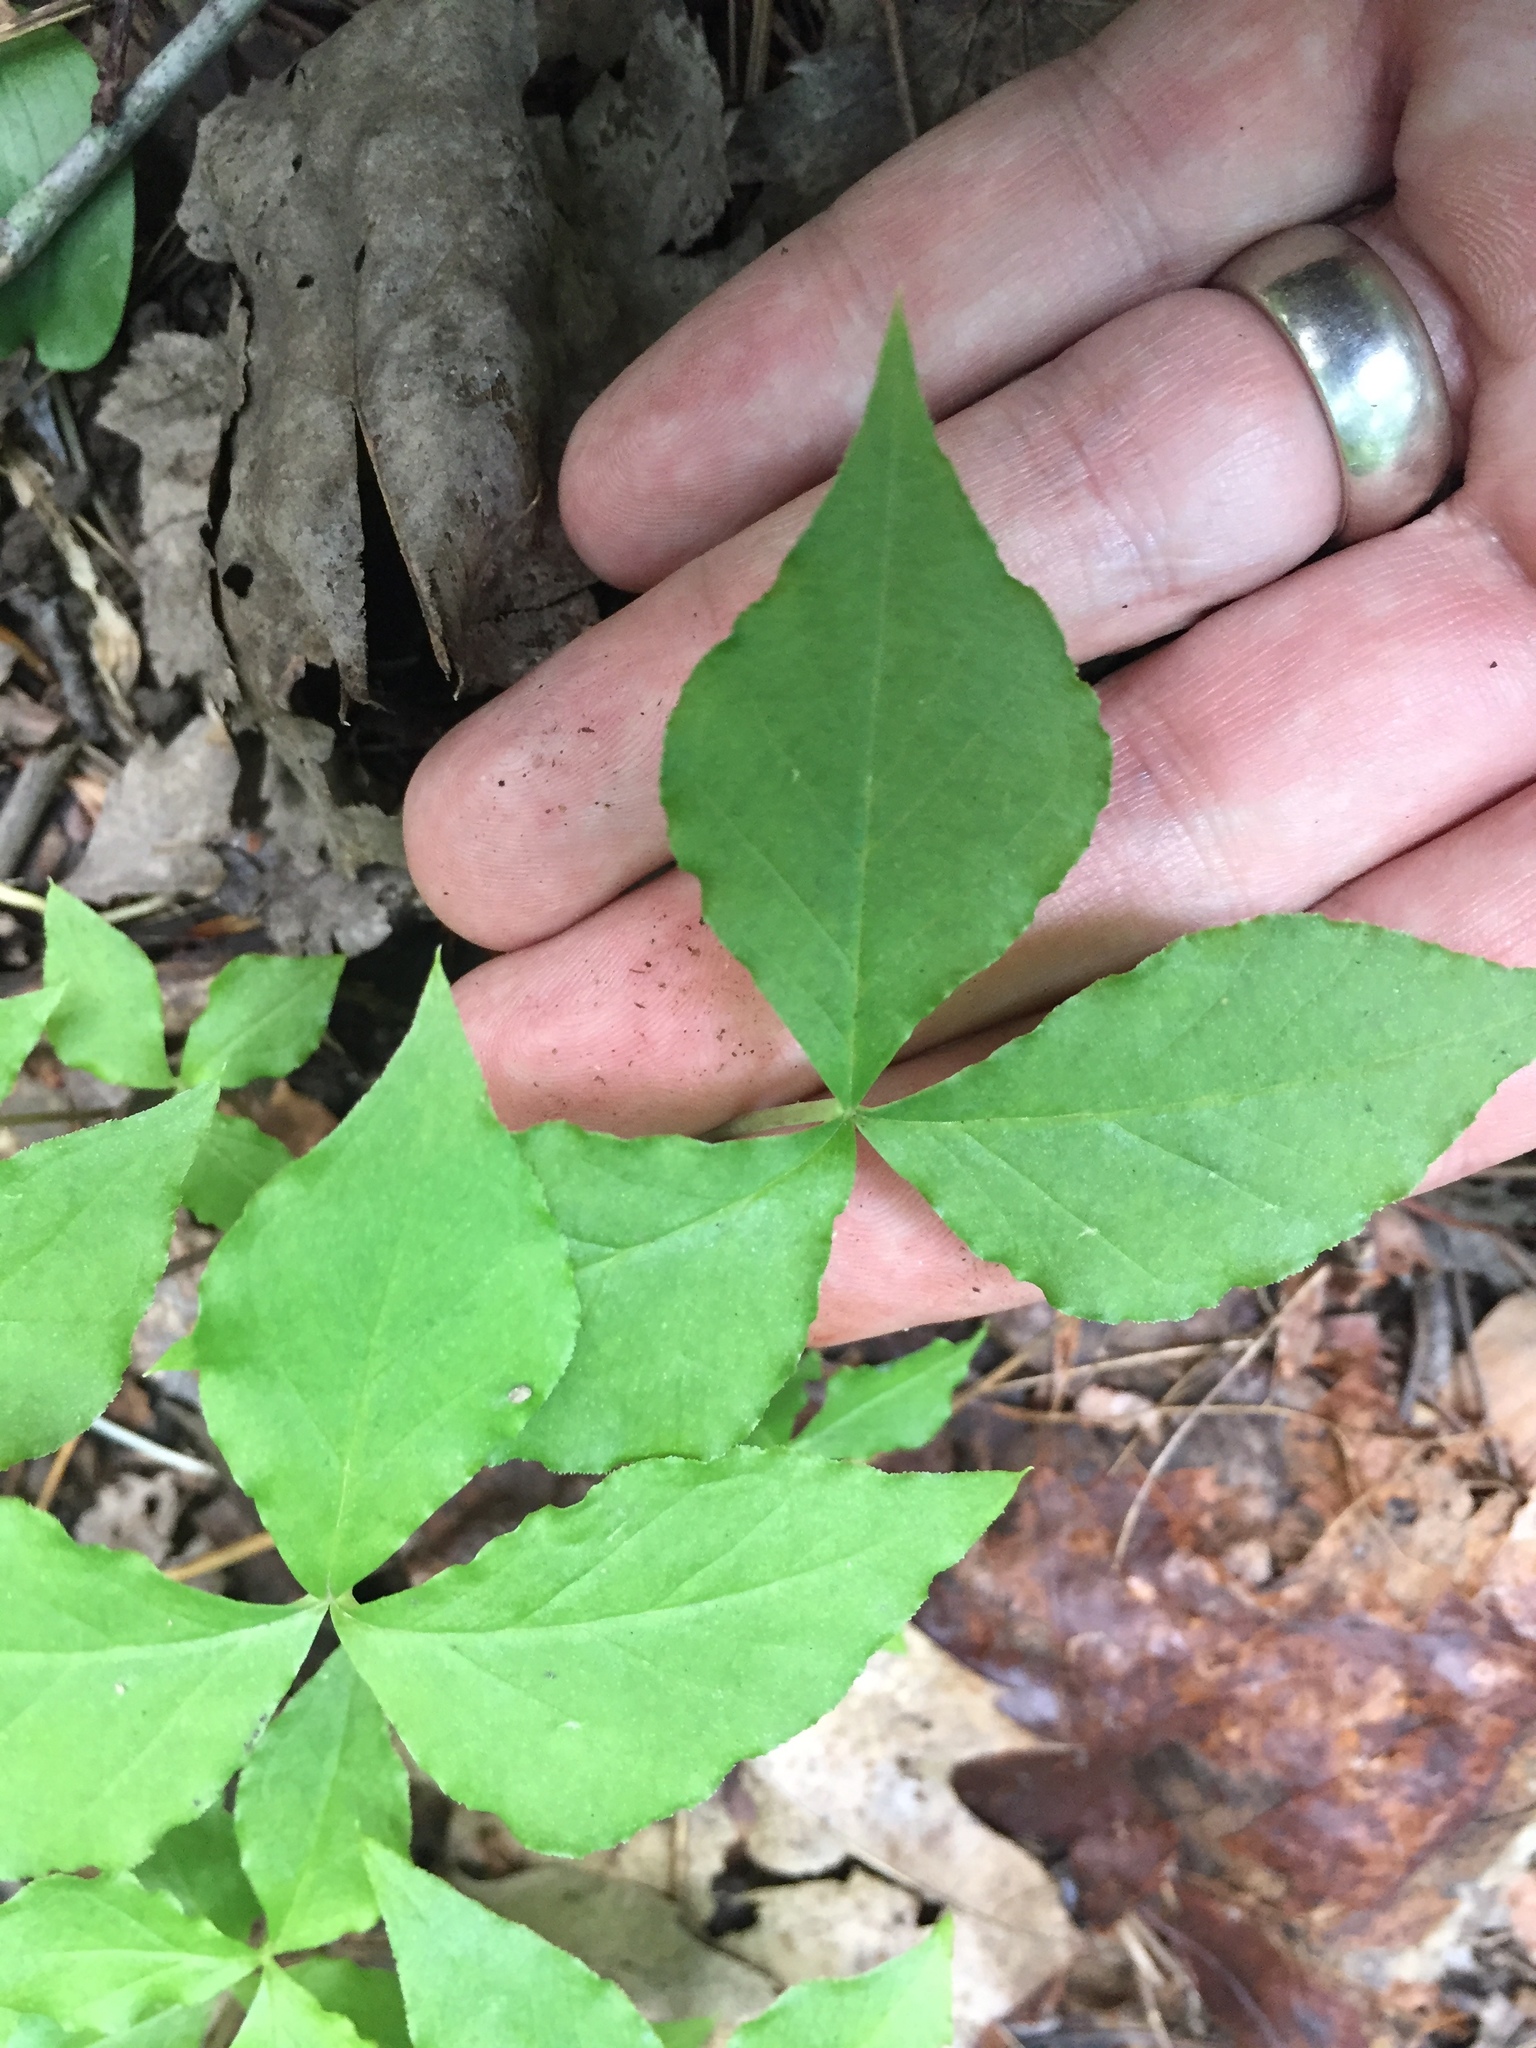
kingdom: Plantae
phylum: Tracheophyta
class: Liliopsida
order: Alismatales
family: Araceae
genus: Arisaema
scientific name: Arisaema triphyllum
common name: Jack-in-the-pulpit
